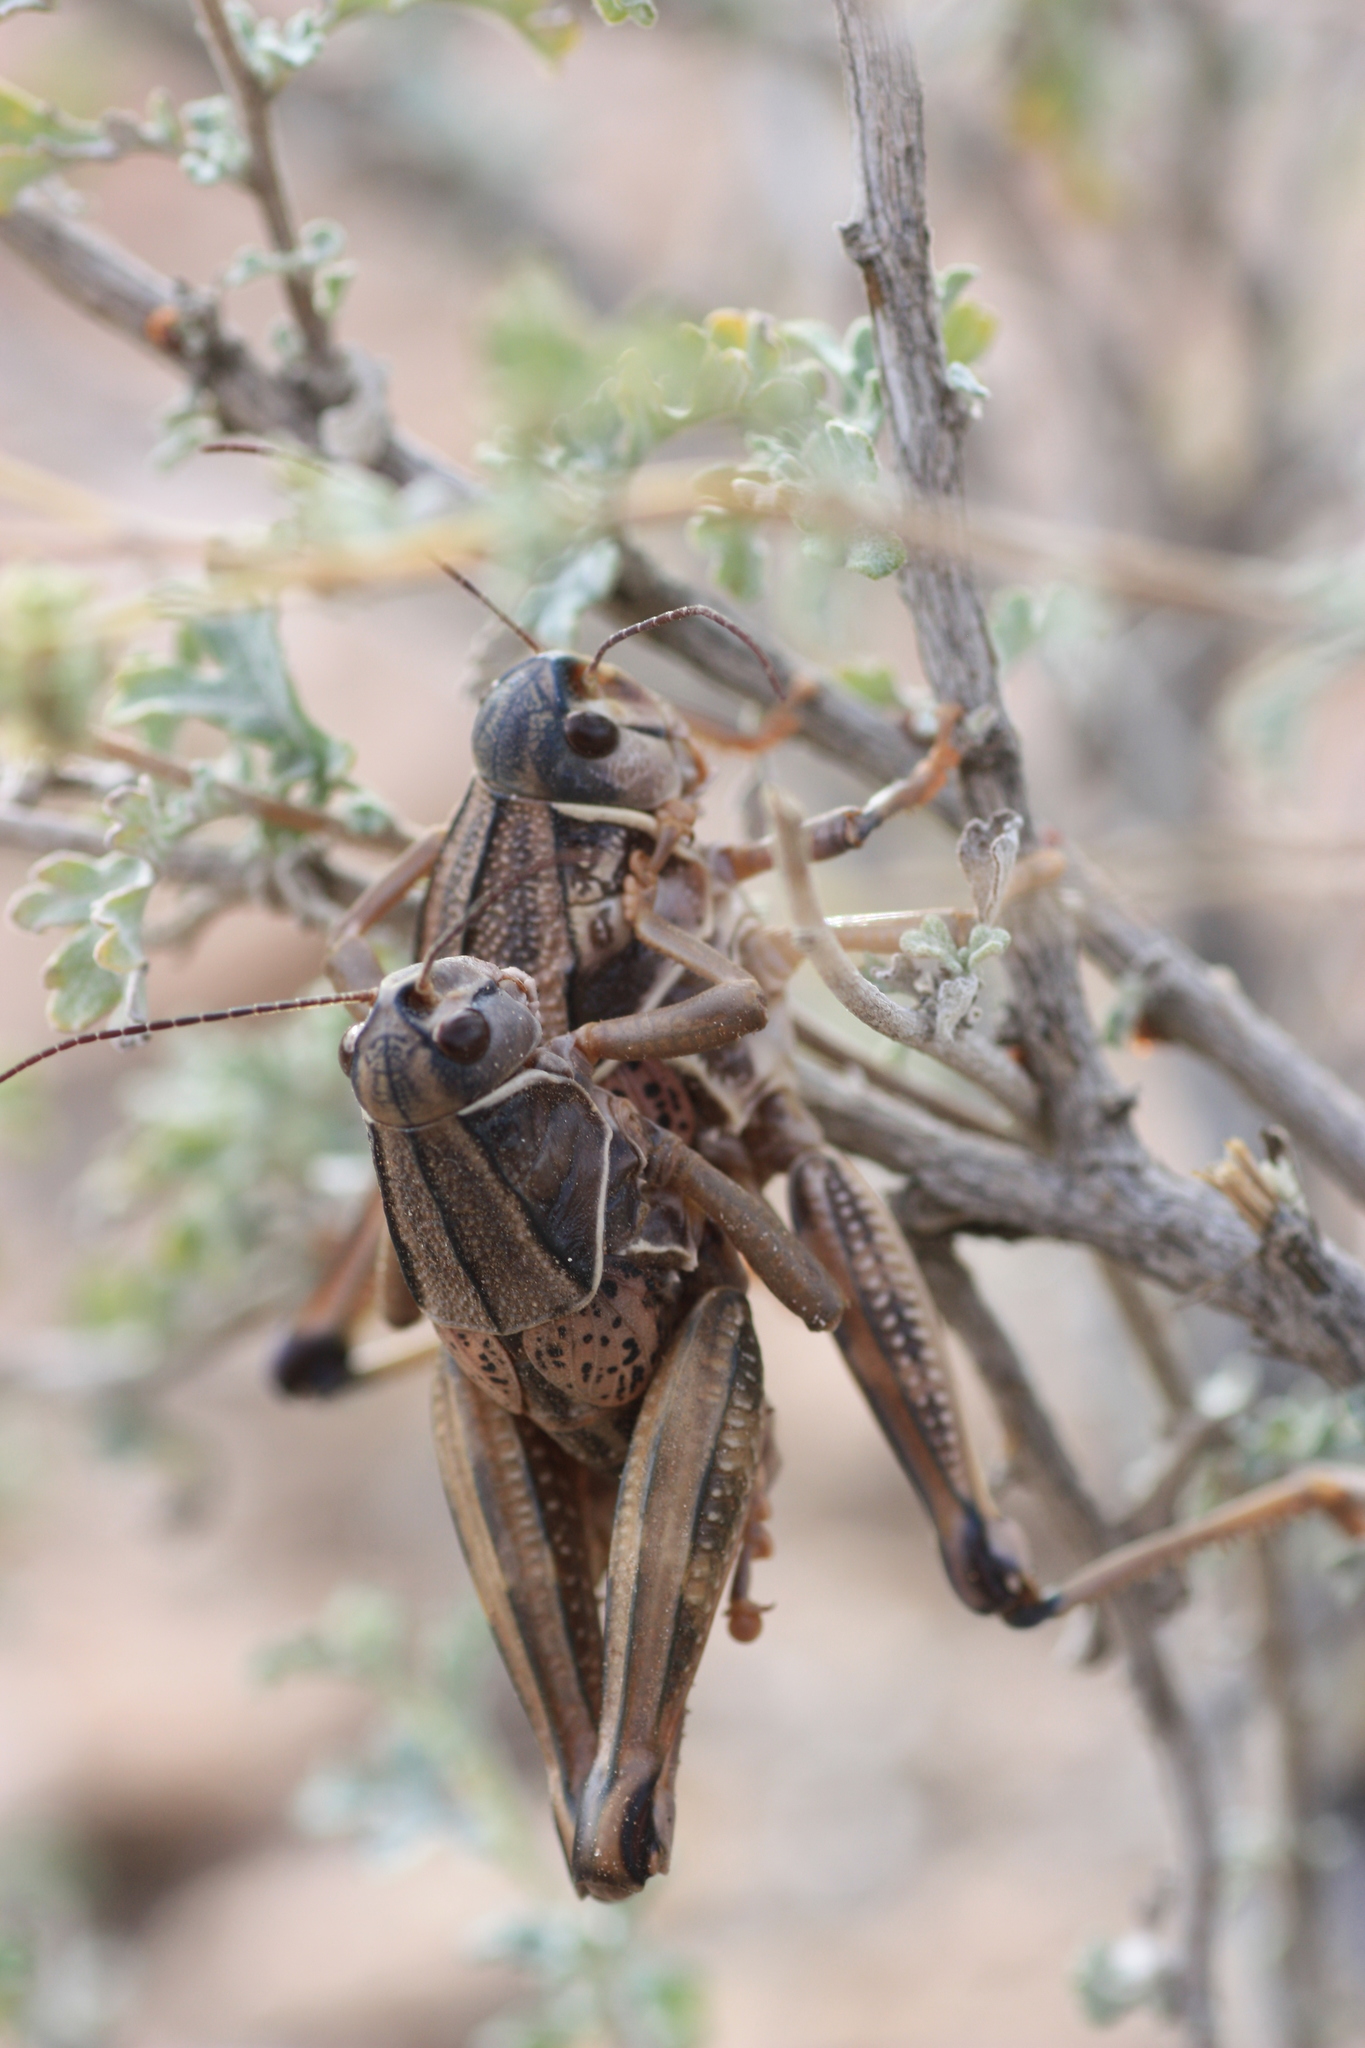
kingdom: Animalia
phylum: Arthropoda
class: Insecta
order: Orthoptera
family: Romaleidae
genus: Brachystola
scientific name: Brachystola magna
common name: Plains lubber grasshopper
